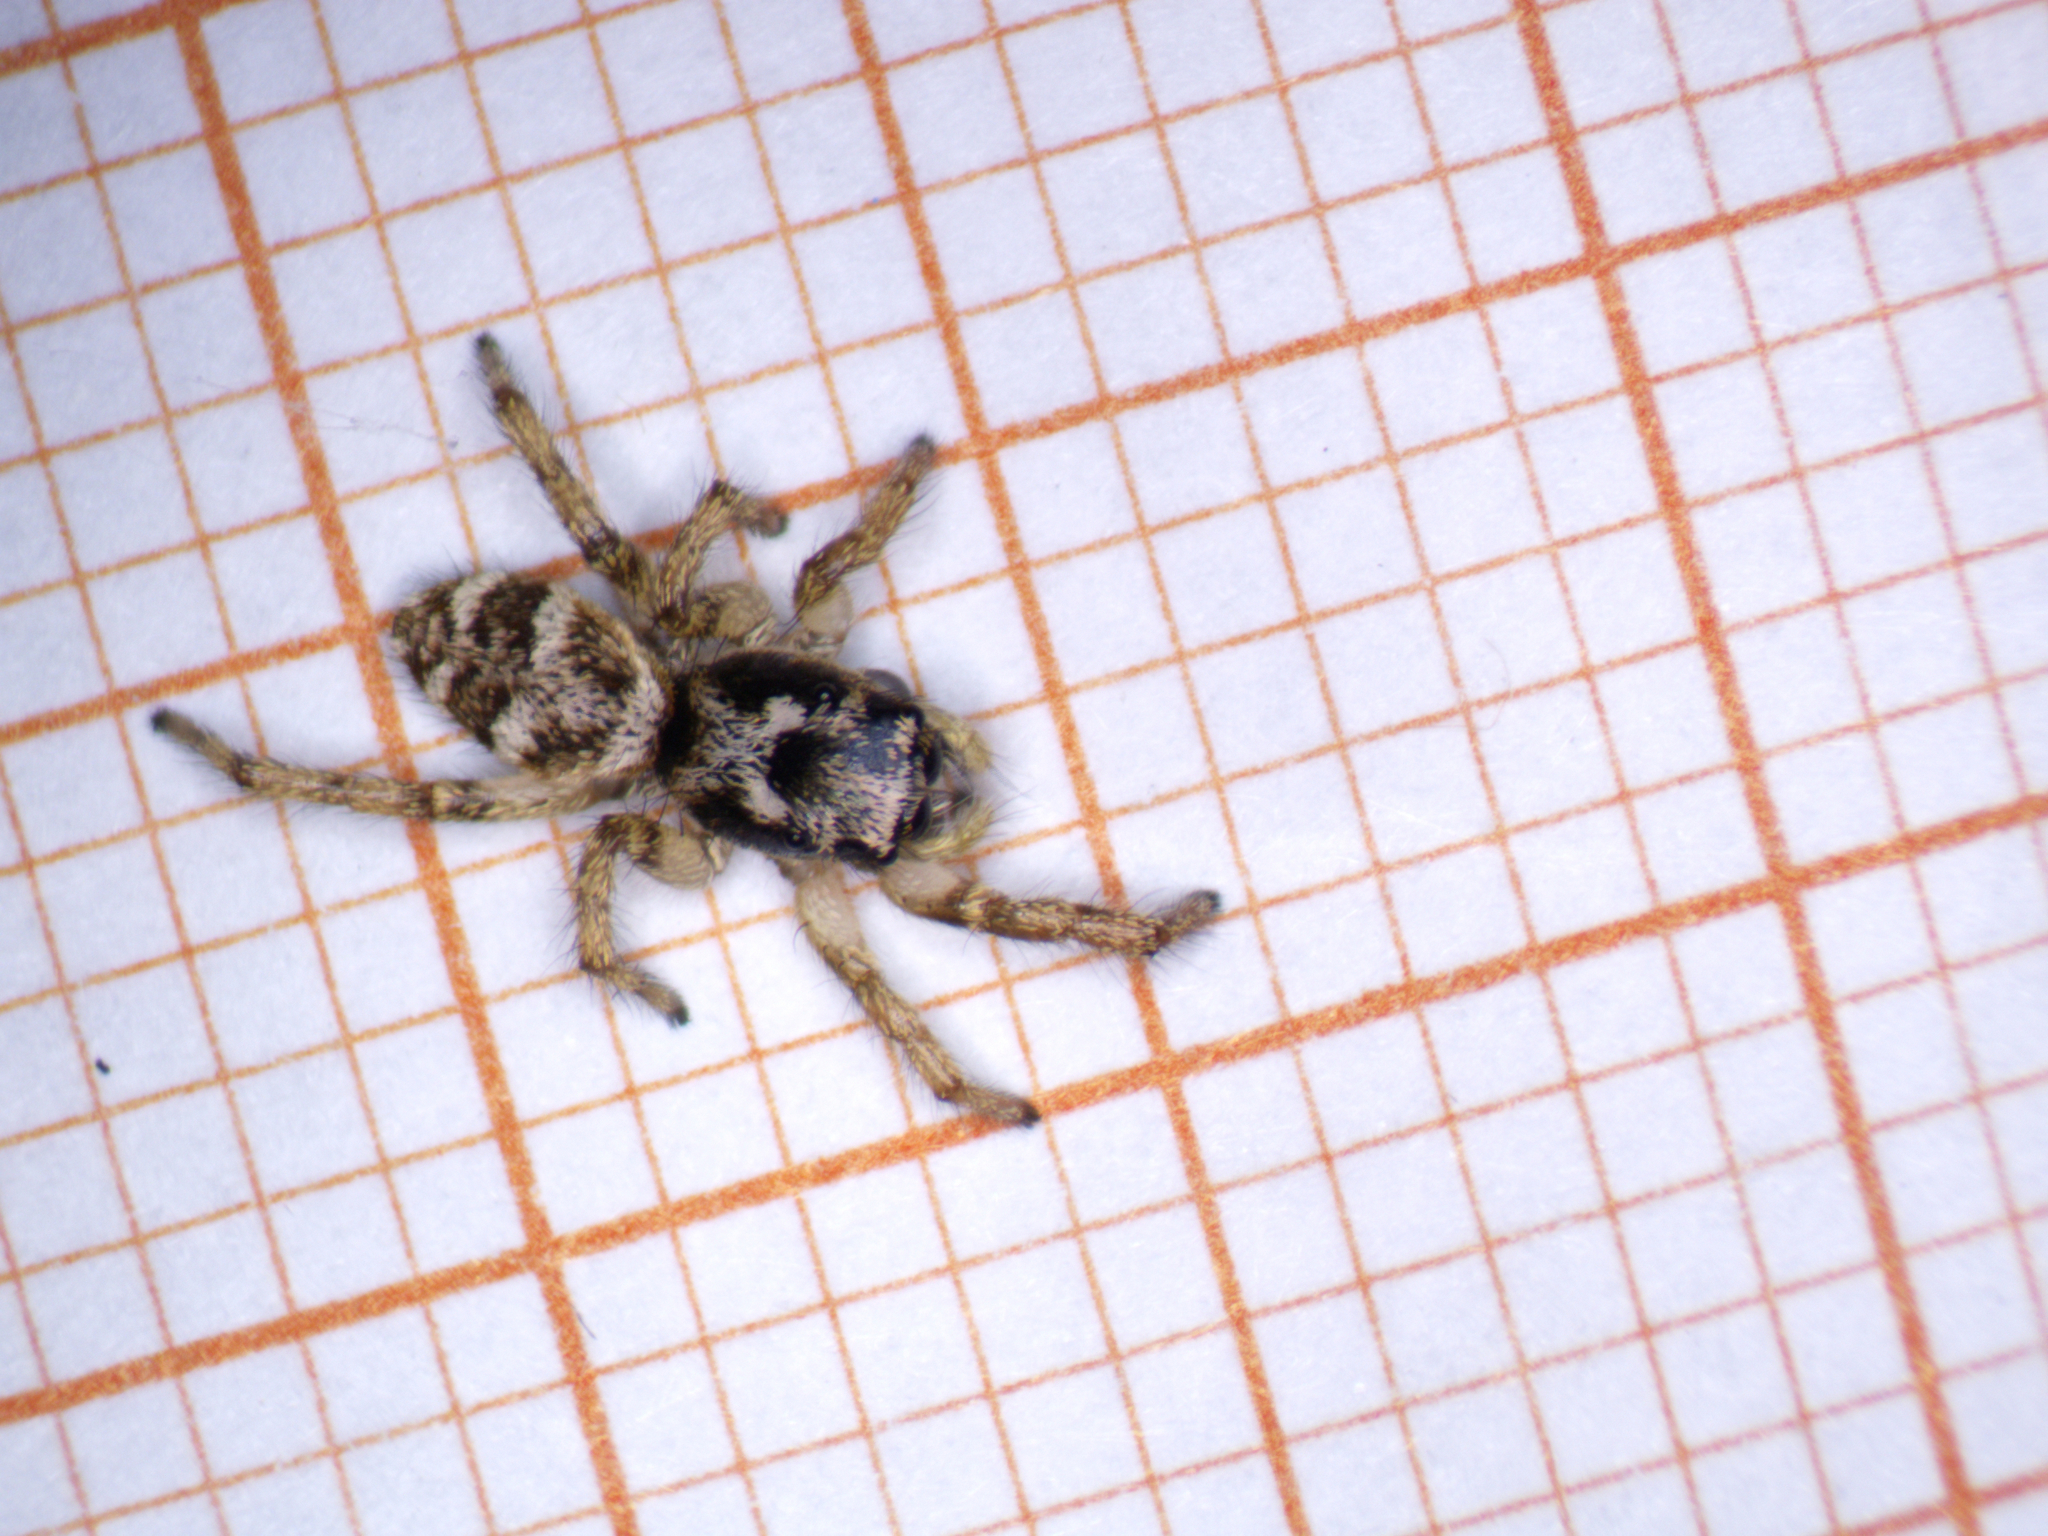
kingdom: Animalia
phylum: Arthropoda
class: Arachnida
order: Araneae
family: Salticidae
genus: Salticus
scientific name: Salticus scenicus
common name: Zebra jumper
